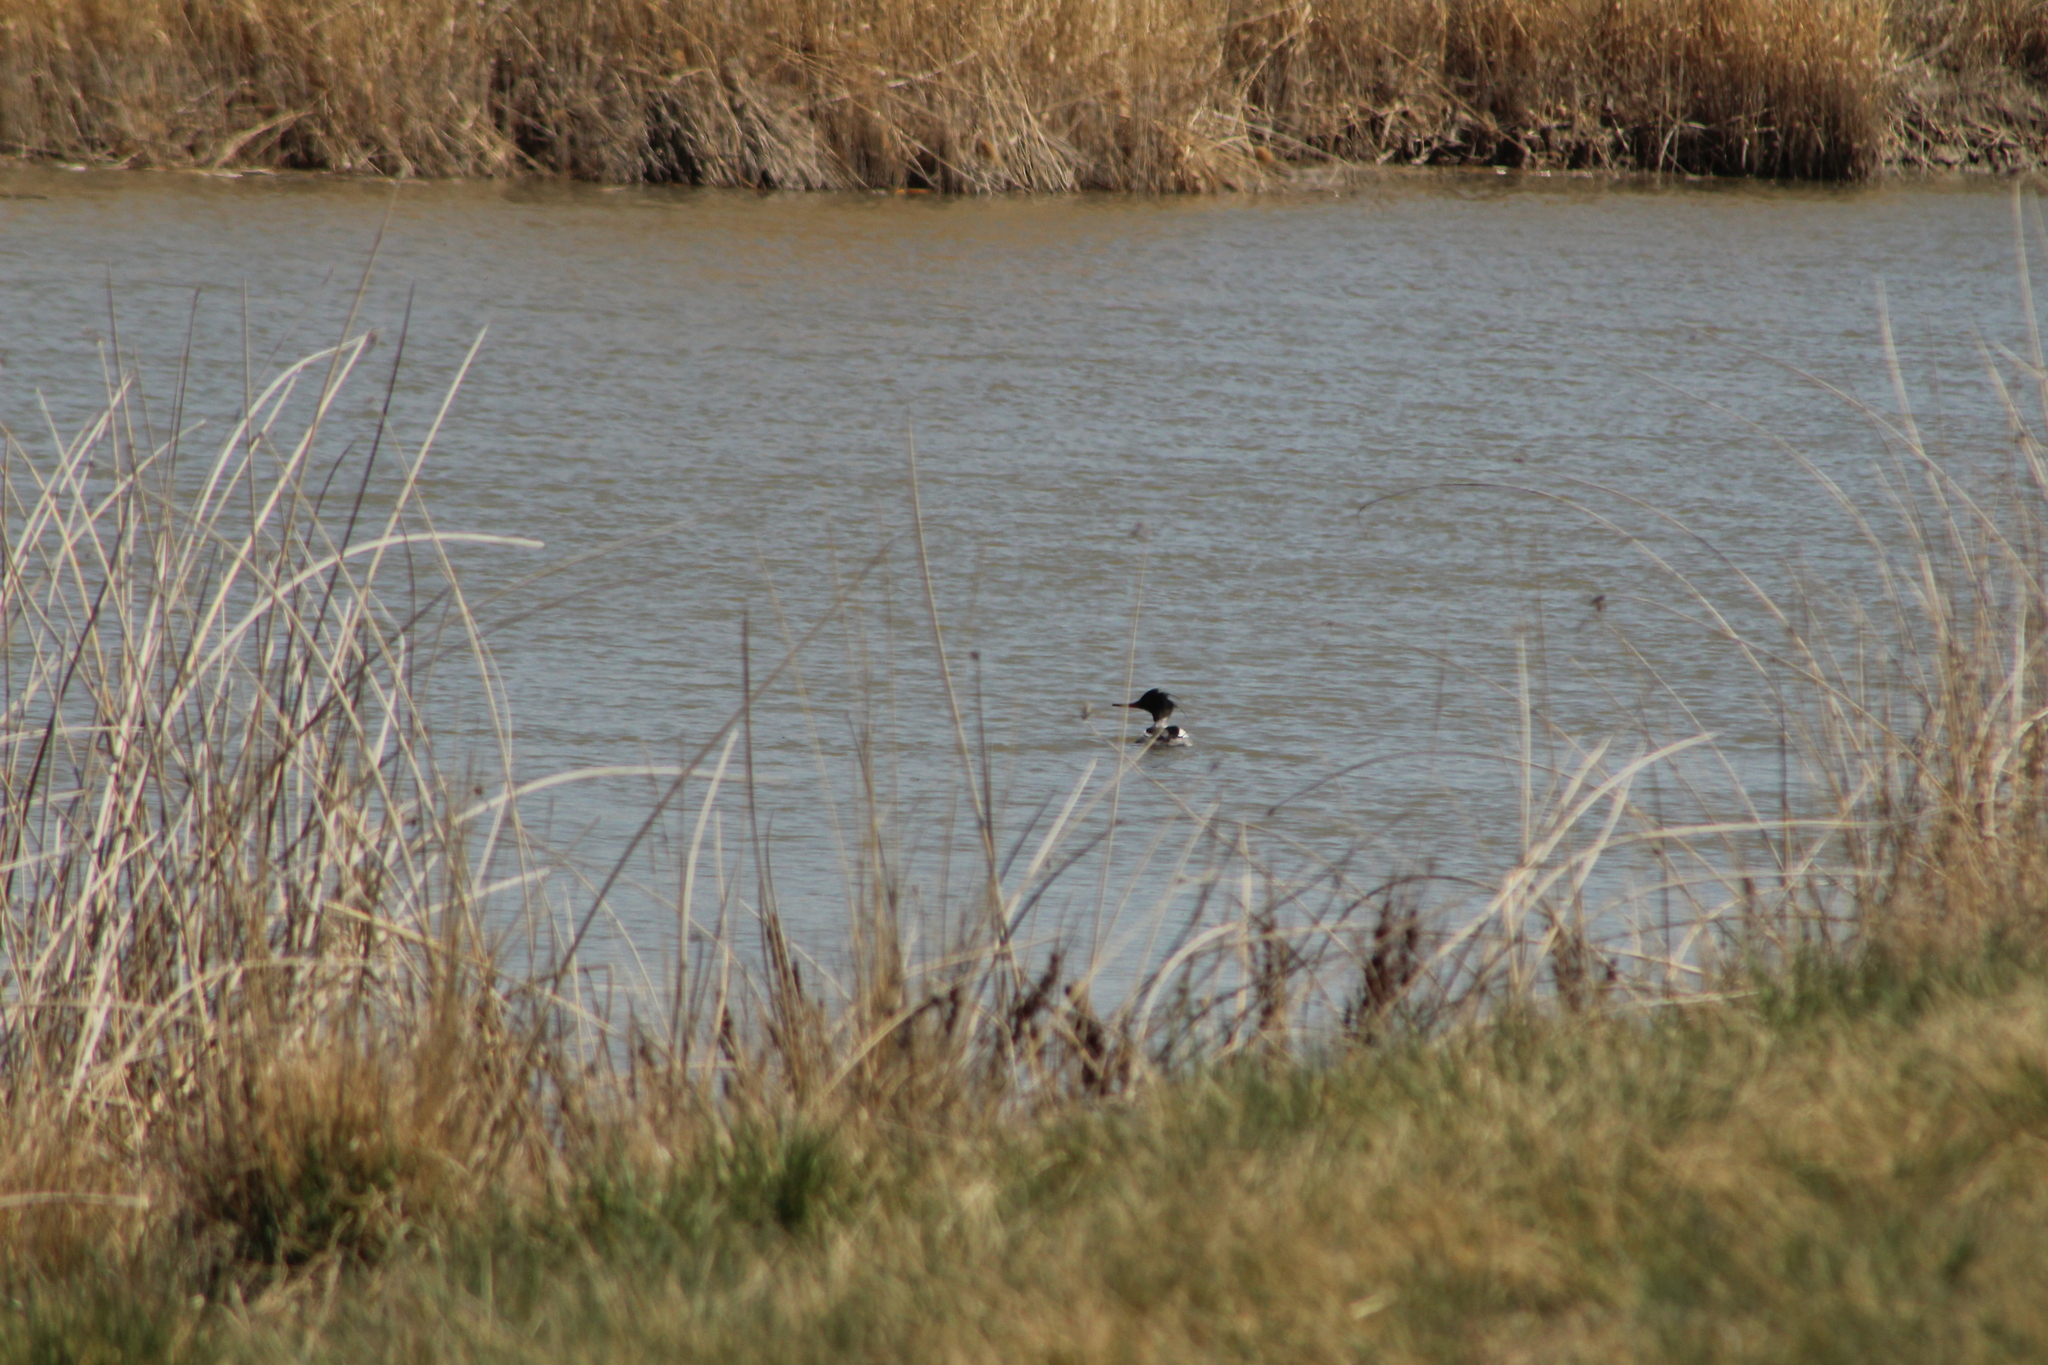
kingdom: Animalia
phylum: Chordata
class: Aves
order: Anseriformes
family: Anatidae
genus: Mergus
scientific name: Mergus serrator
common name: Red-breasted merganser
